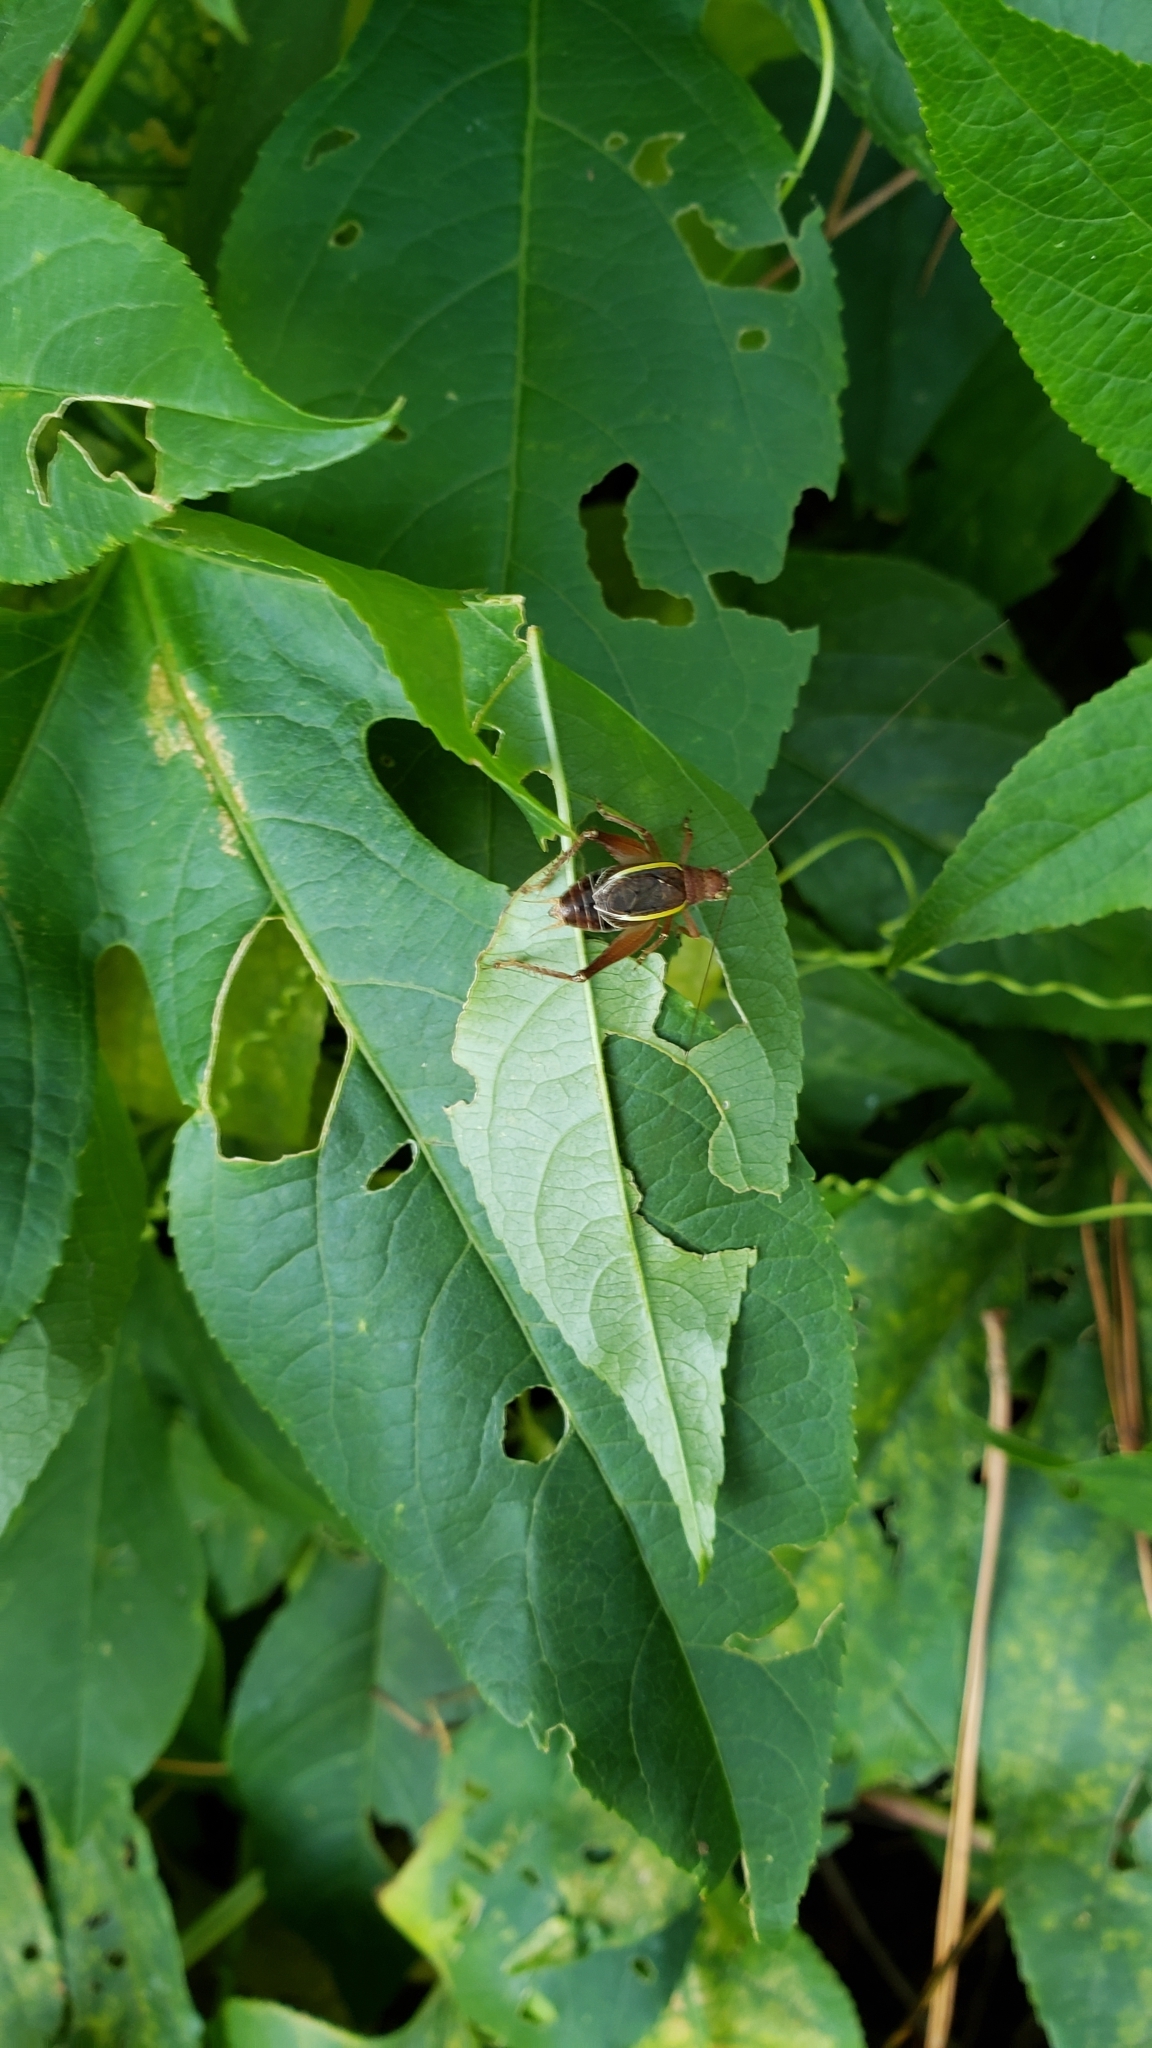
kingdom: Animalia
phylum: Arthropoda
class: Insecta
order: Orthoptera
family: Gryllidae
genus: Hapithus
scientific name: Hapithus agitator
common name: Restless bush cricket
